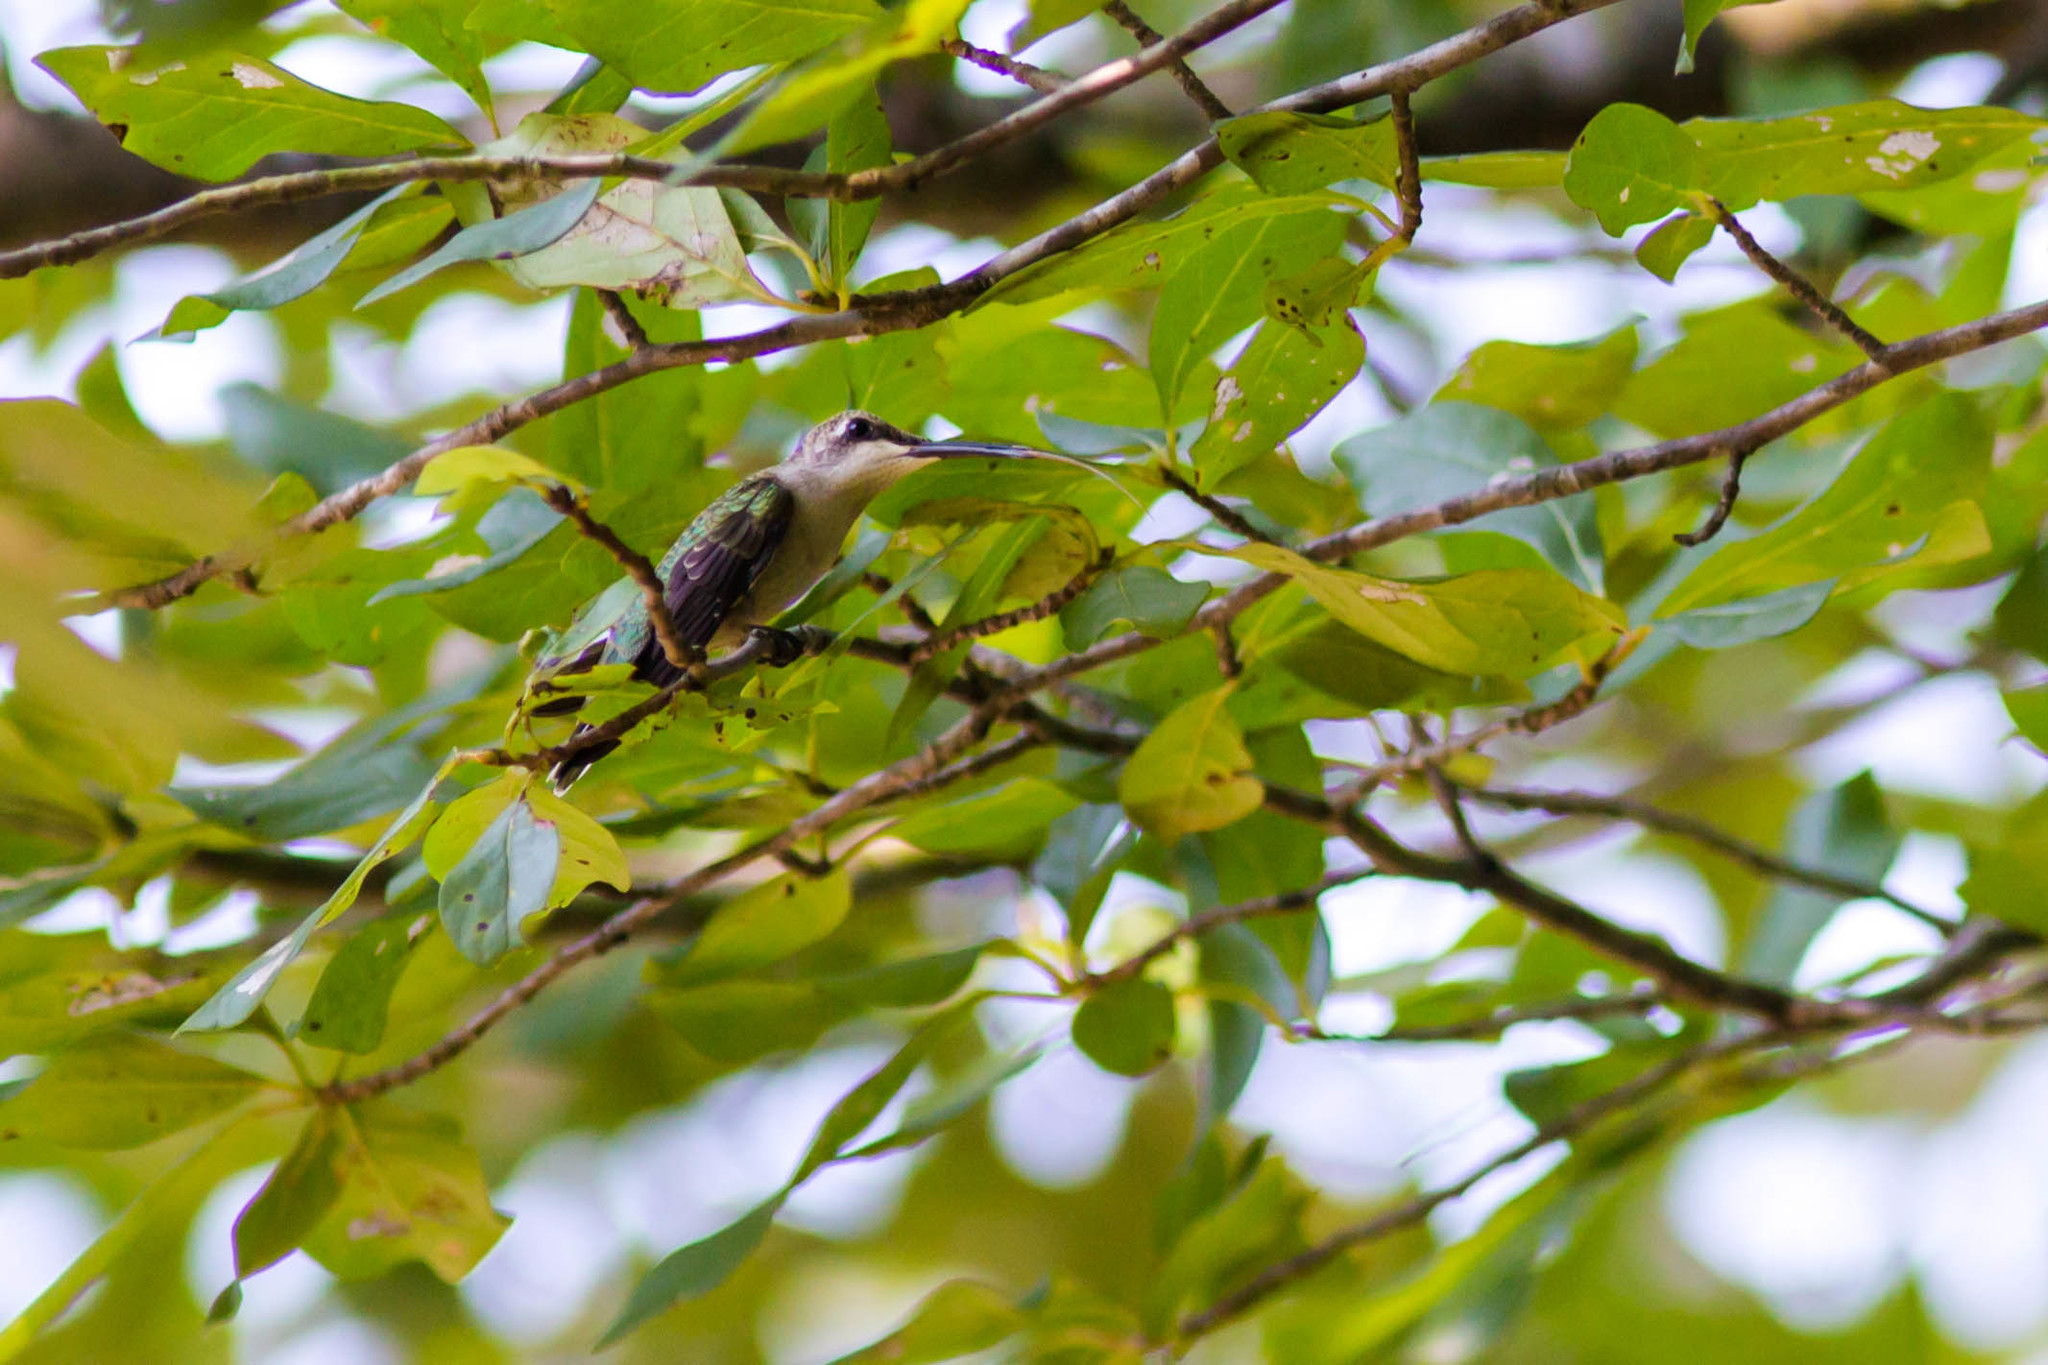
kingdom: Animalia
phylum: Chordata
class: Aves
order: Apodiformes
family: Trochilidae
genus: Archilochus
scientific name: Archilochus colubris
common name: Ruby-throated hummingbird
